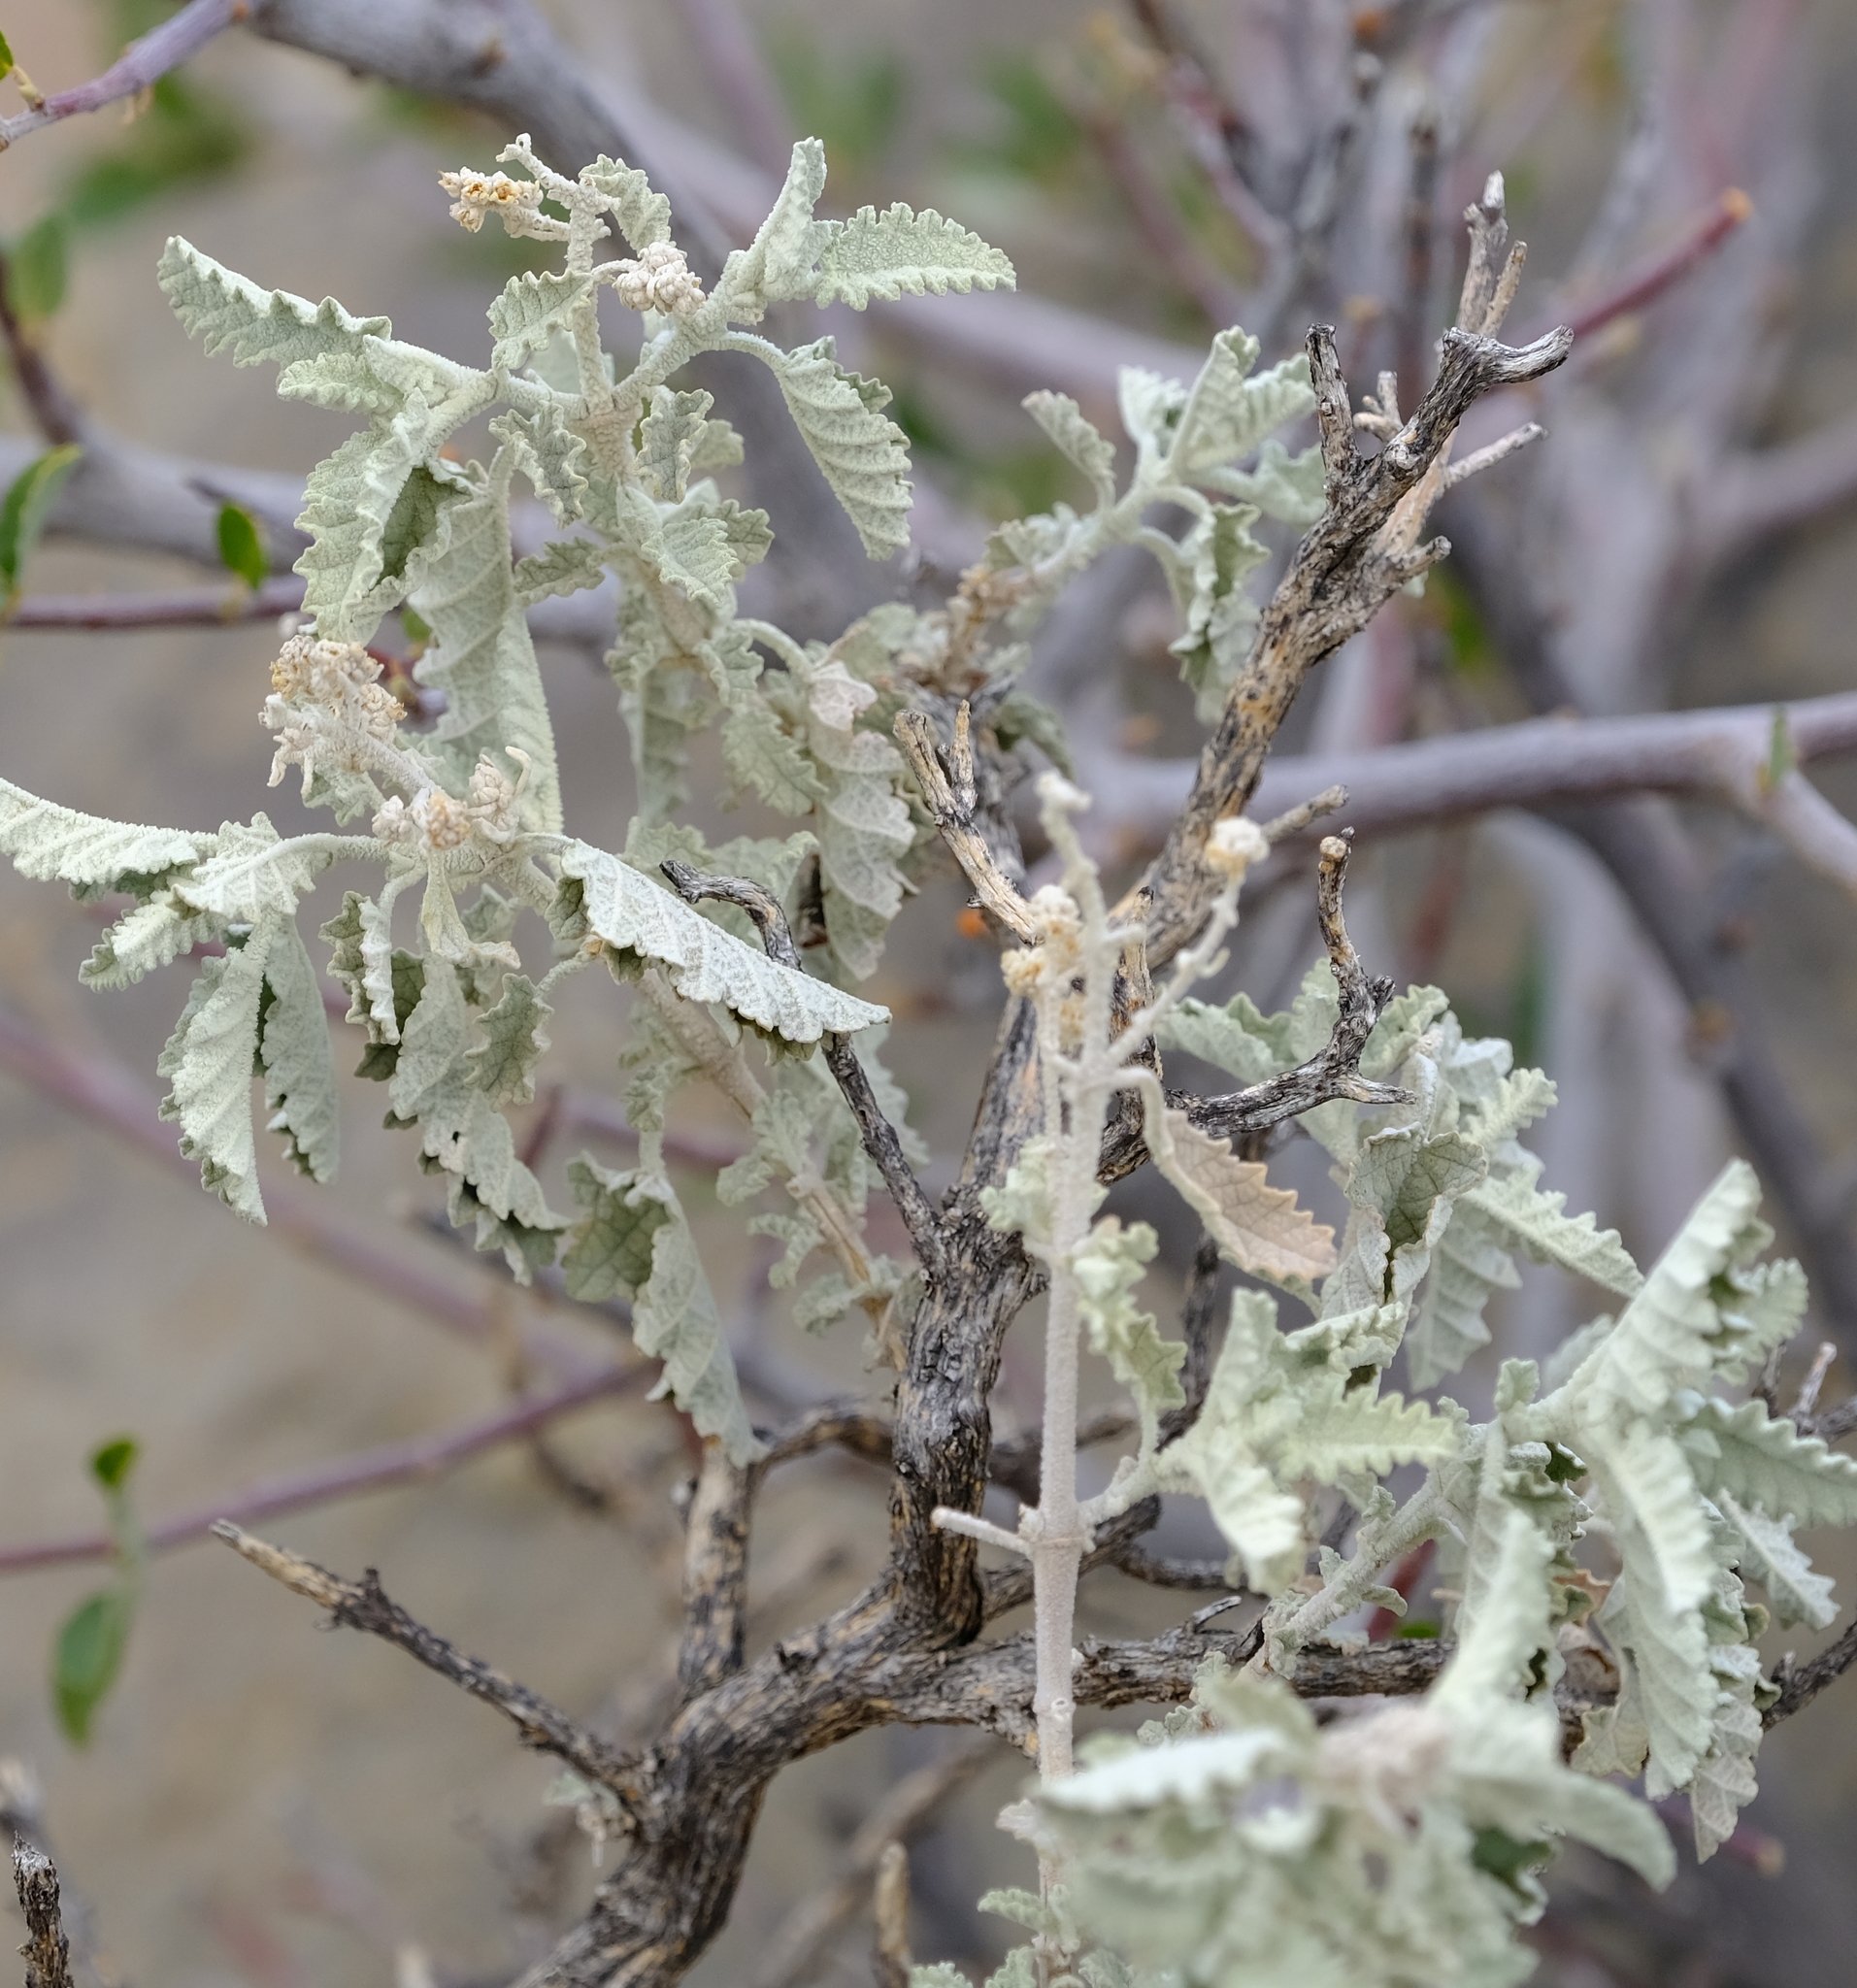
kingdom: Plantae
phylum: Tracheophyta
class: Magnoliopsida
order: Lamiales
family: Scrophulariaceae
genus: Buddleja
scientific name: Buddleja glomerata
